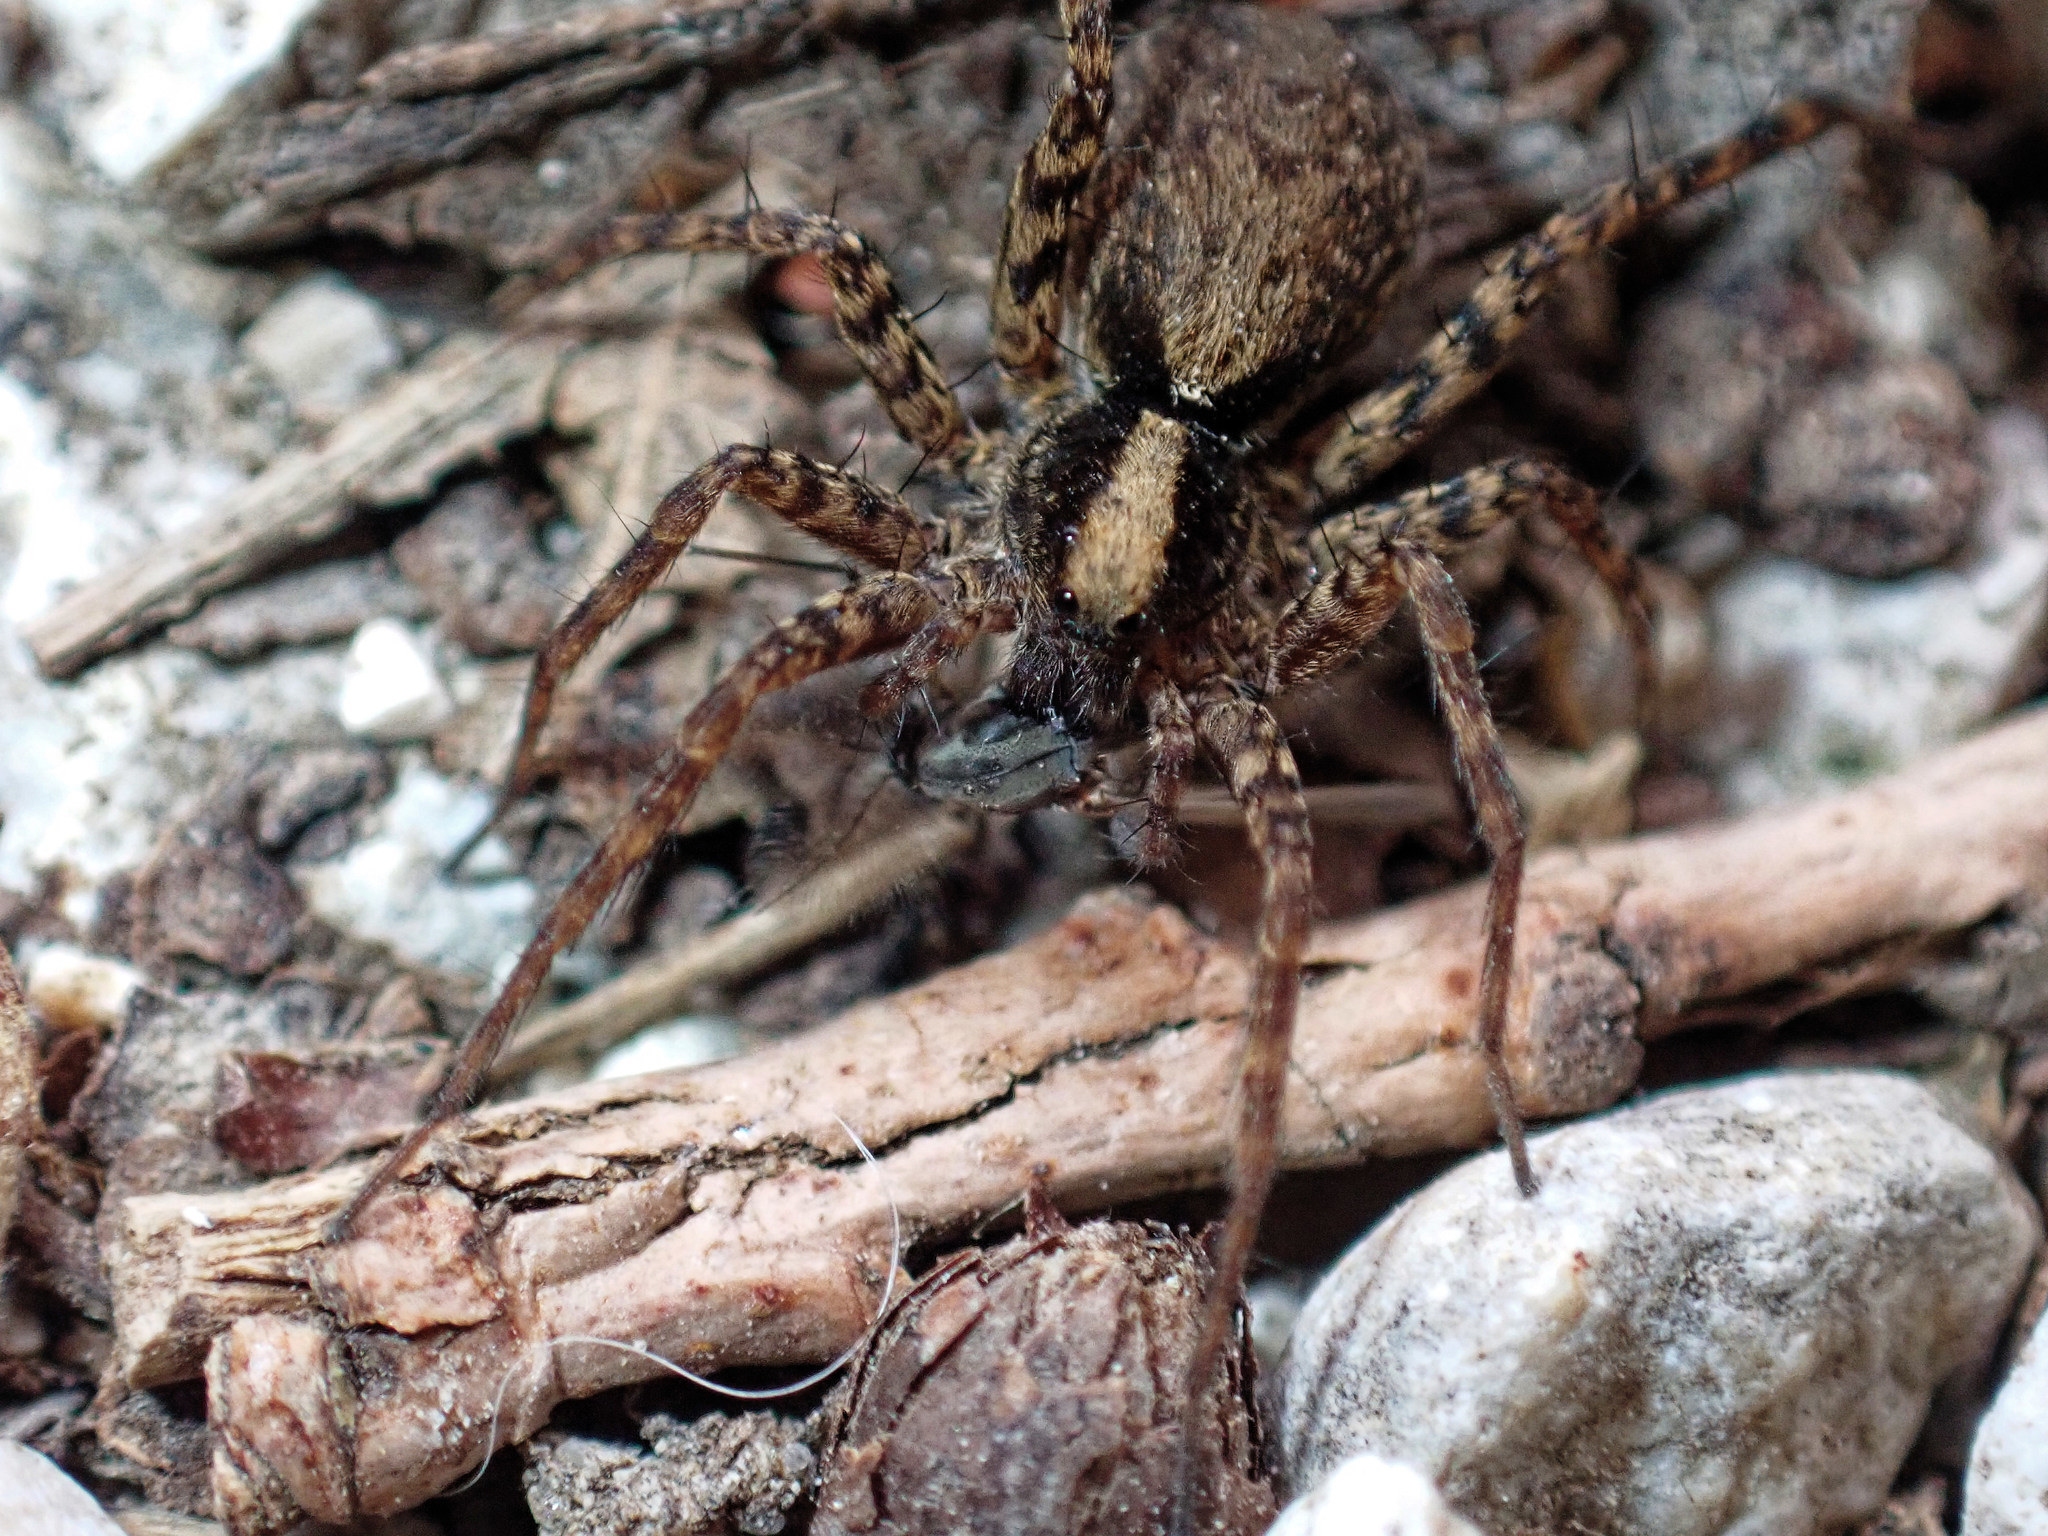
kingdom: Animalia
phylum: Arthropoda
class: Arachnida
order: Araneae
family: Lycosidae
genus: Pardosa
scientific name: Pardosa
